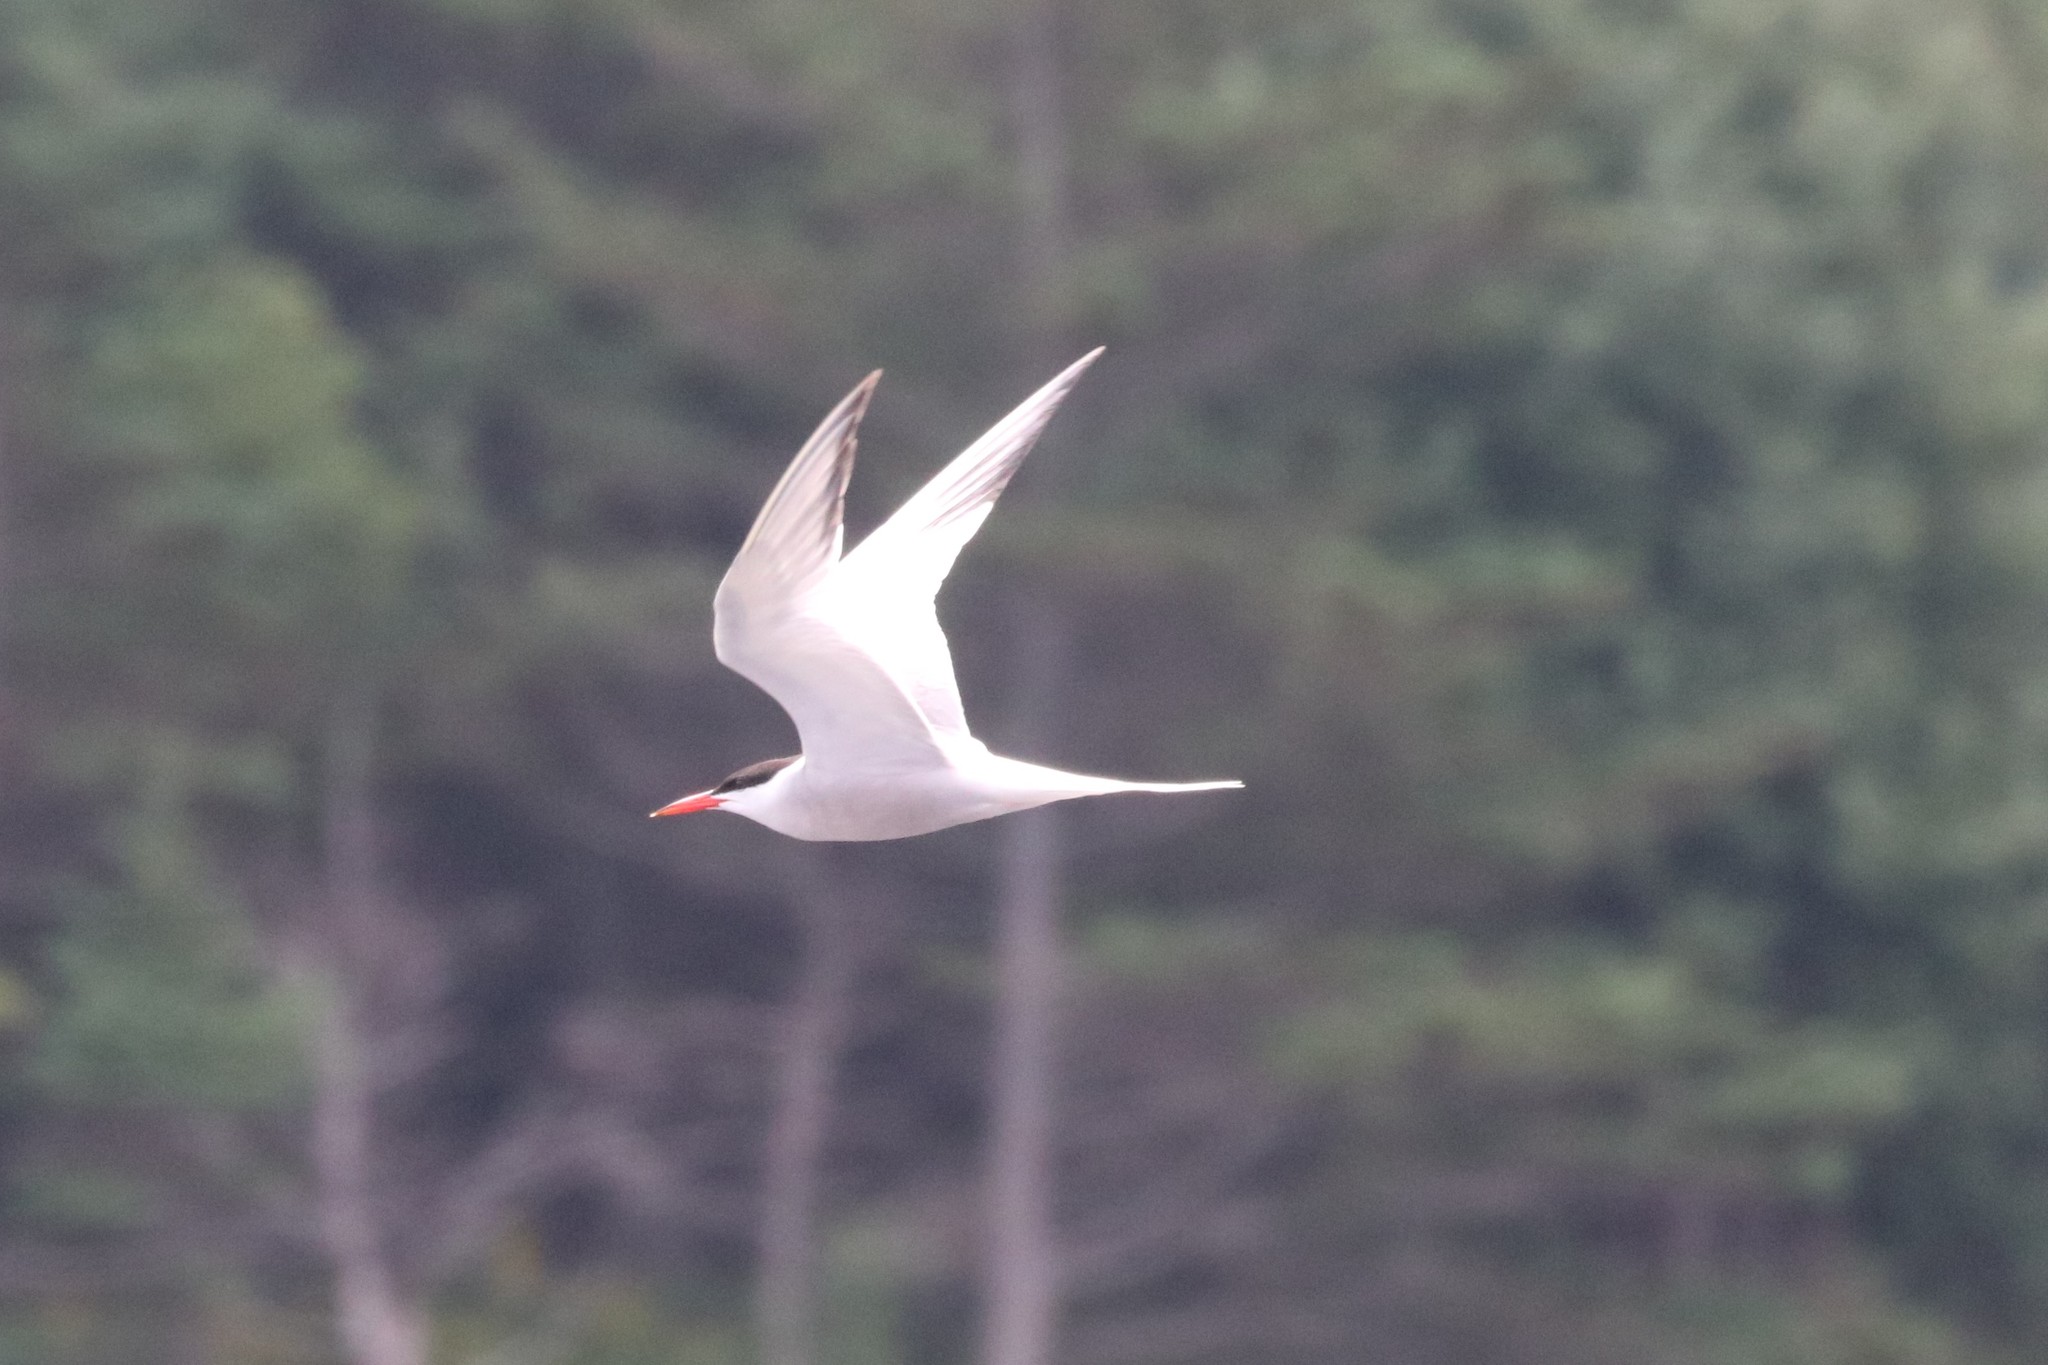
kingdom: Animalia
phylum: Chordata
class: Aves
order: Charadriiformes
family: Laridae
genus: Sterna
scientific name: Sterna hirundo
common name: Common tern
